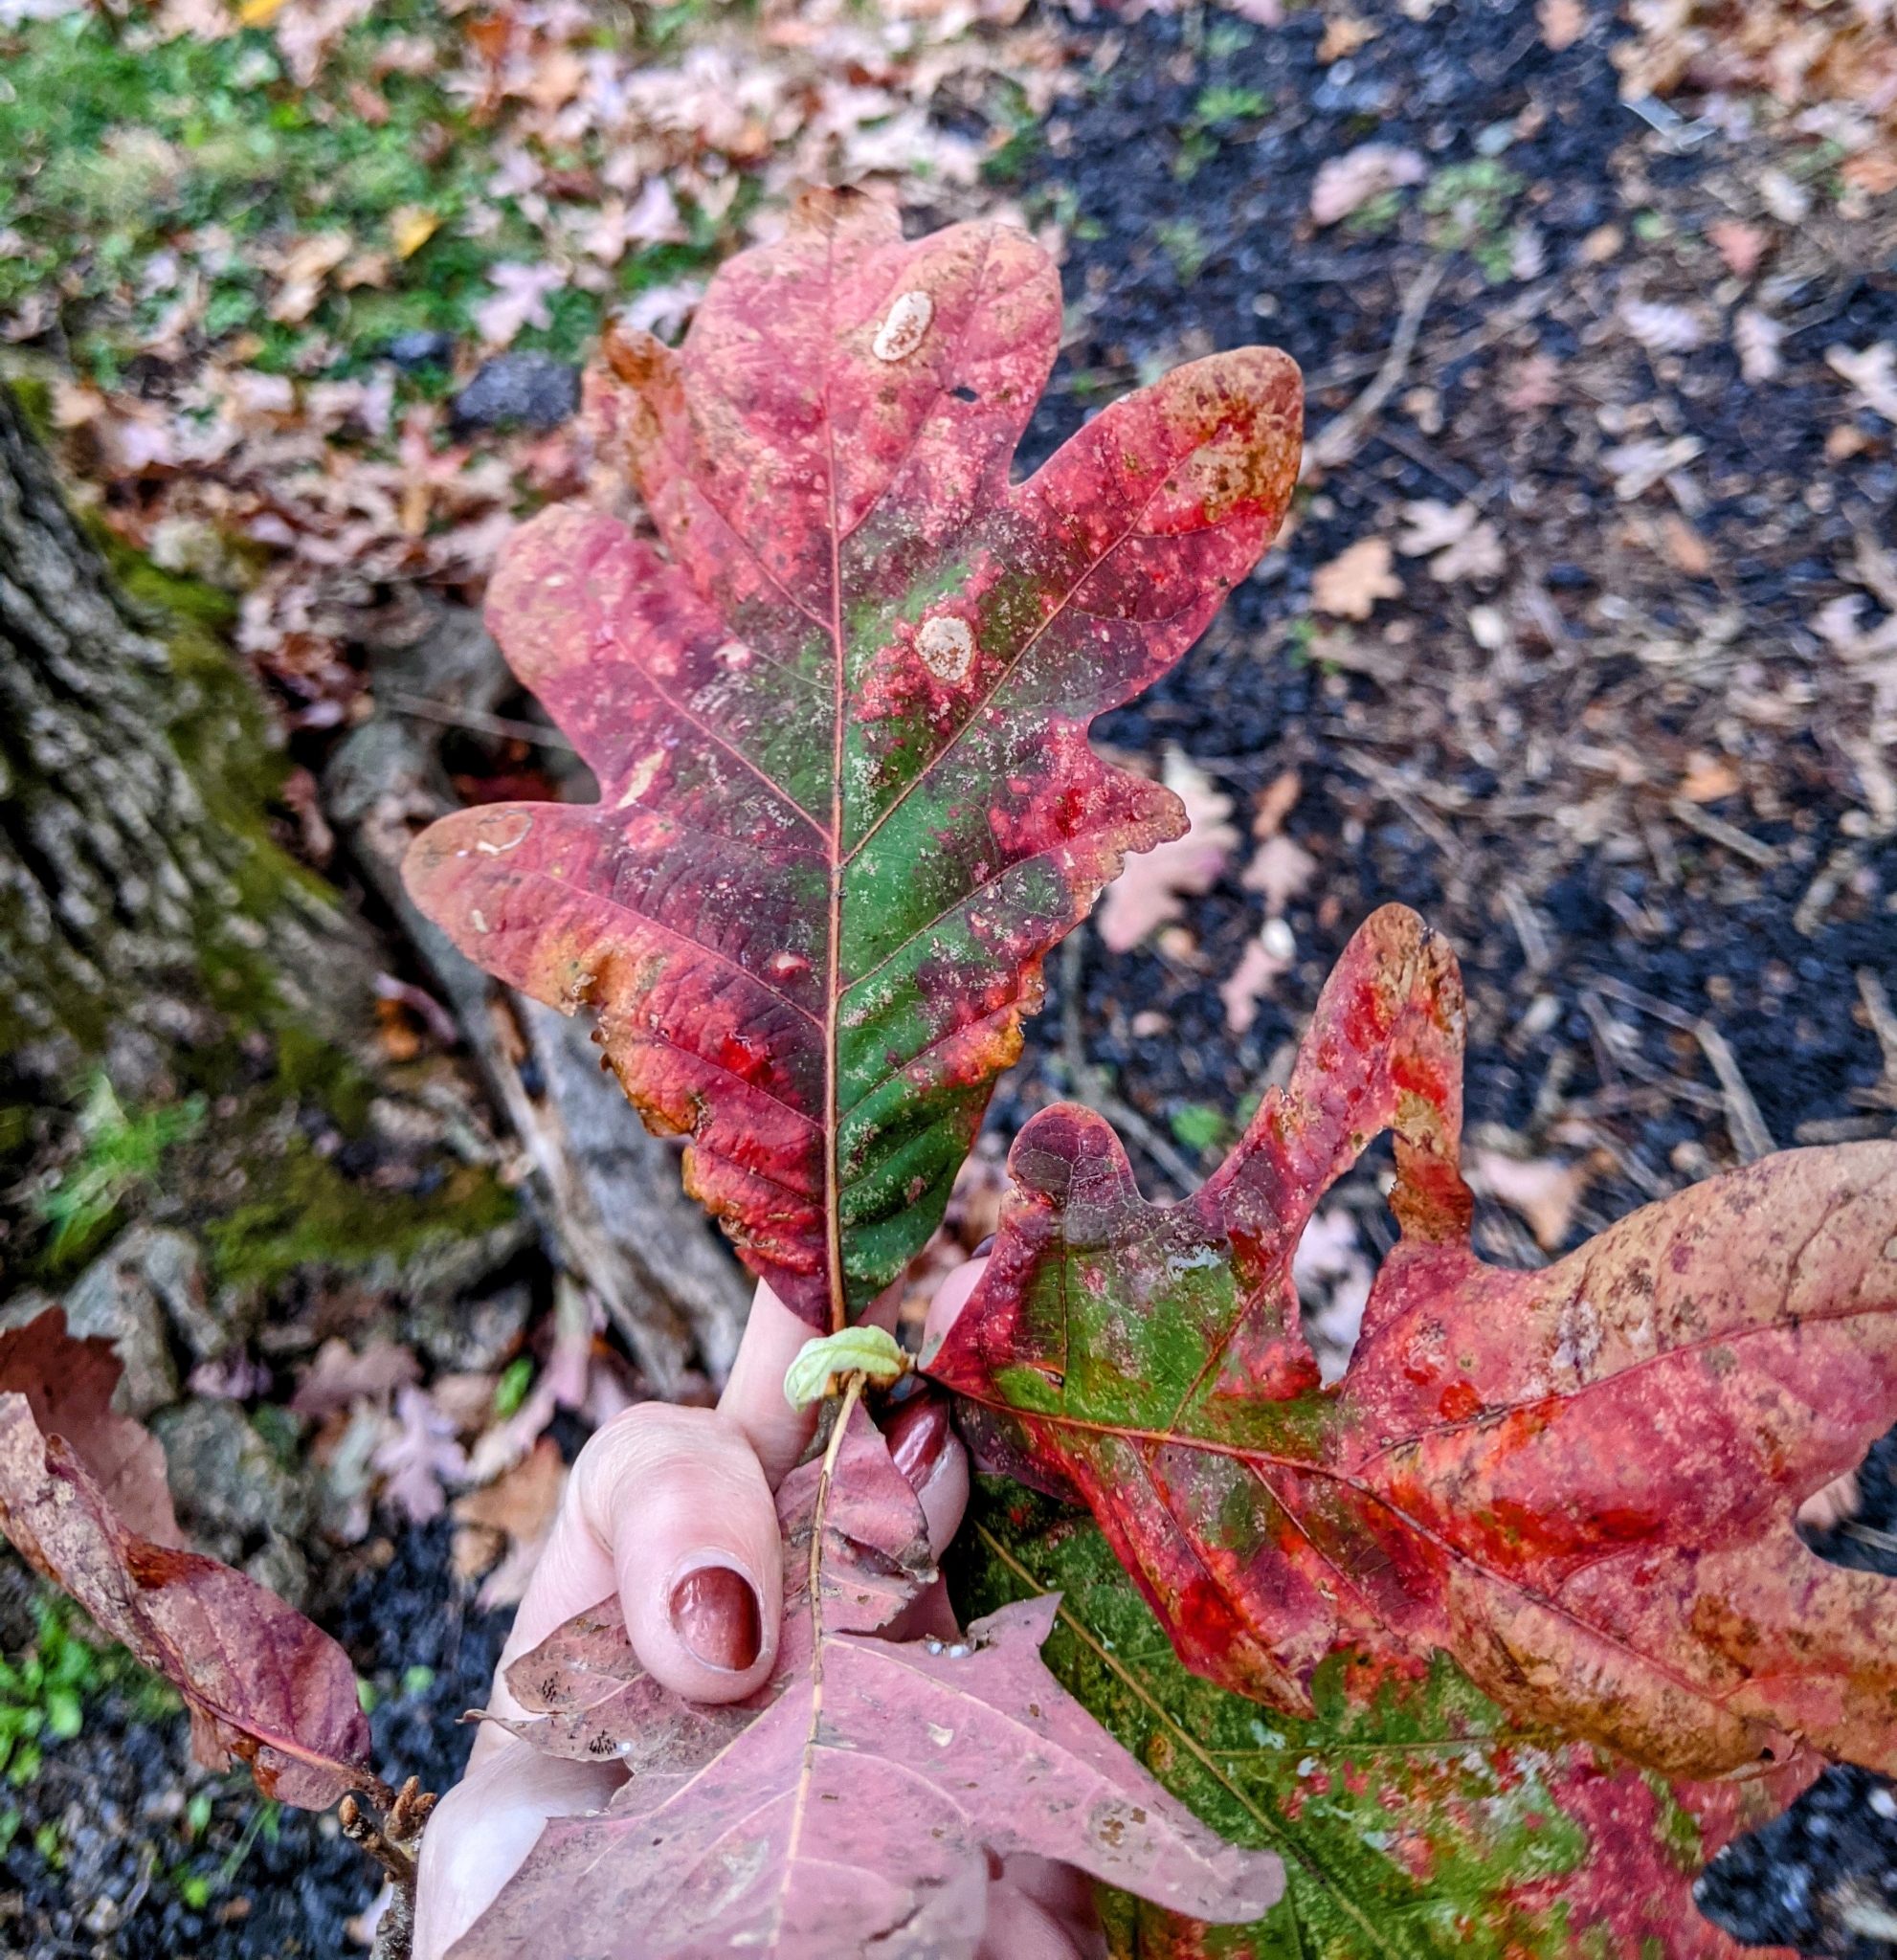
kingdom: Plantae
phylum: Tracheophyta
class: Magnoliopsida
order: Fagales
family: Fagaceae
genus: Quercus
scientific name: Quercus alba
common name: White oak
